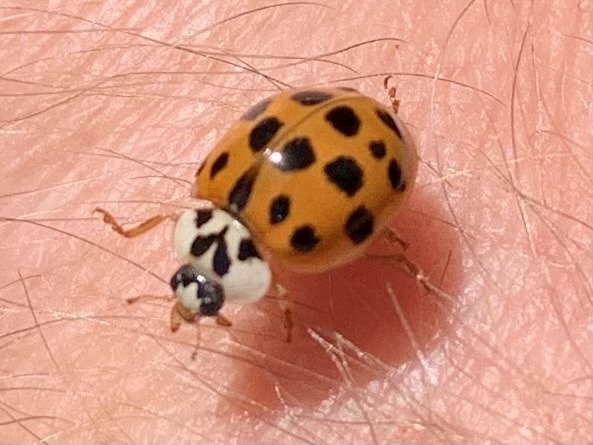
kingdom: Animalia
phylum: Arthropoda
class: Insecta
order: Coleoptera
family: Coccinellidae
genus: Harmonia
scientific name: Harmonia axyridis
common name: Harlequin ladybird
